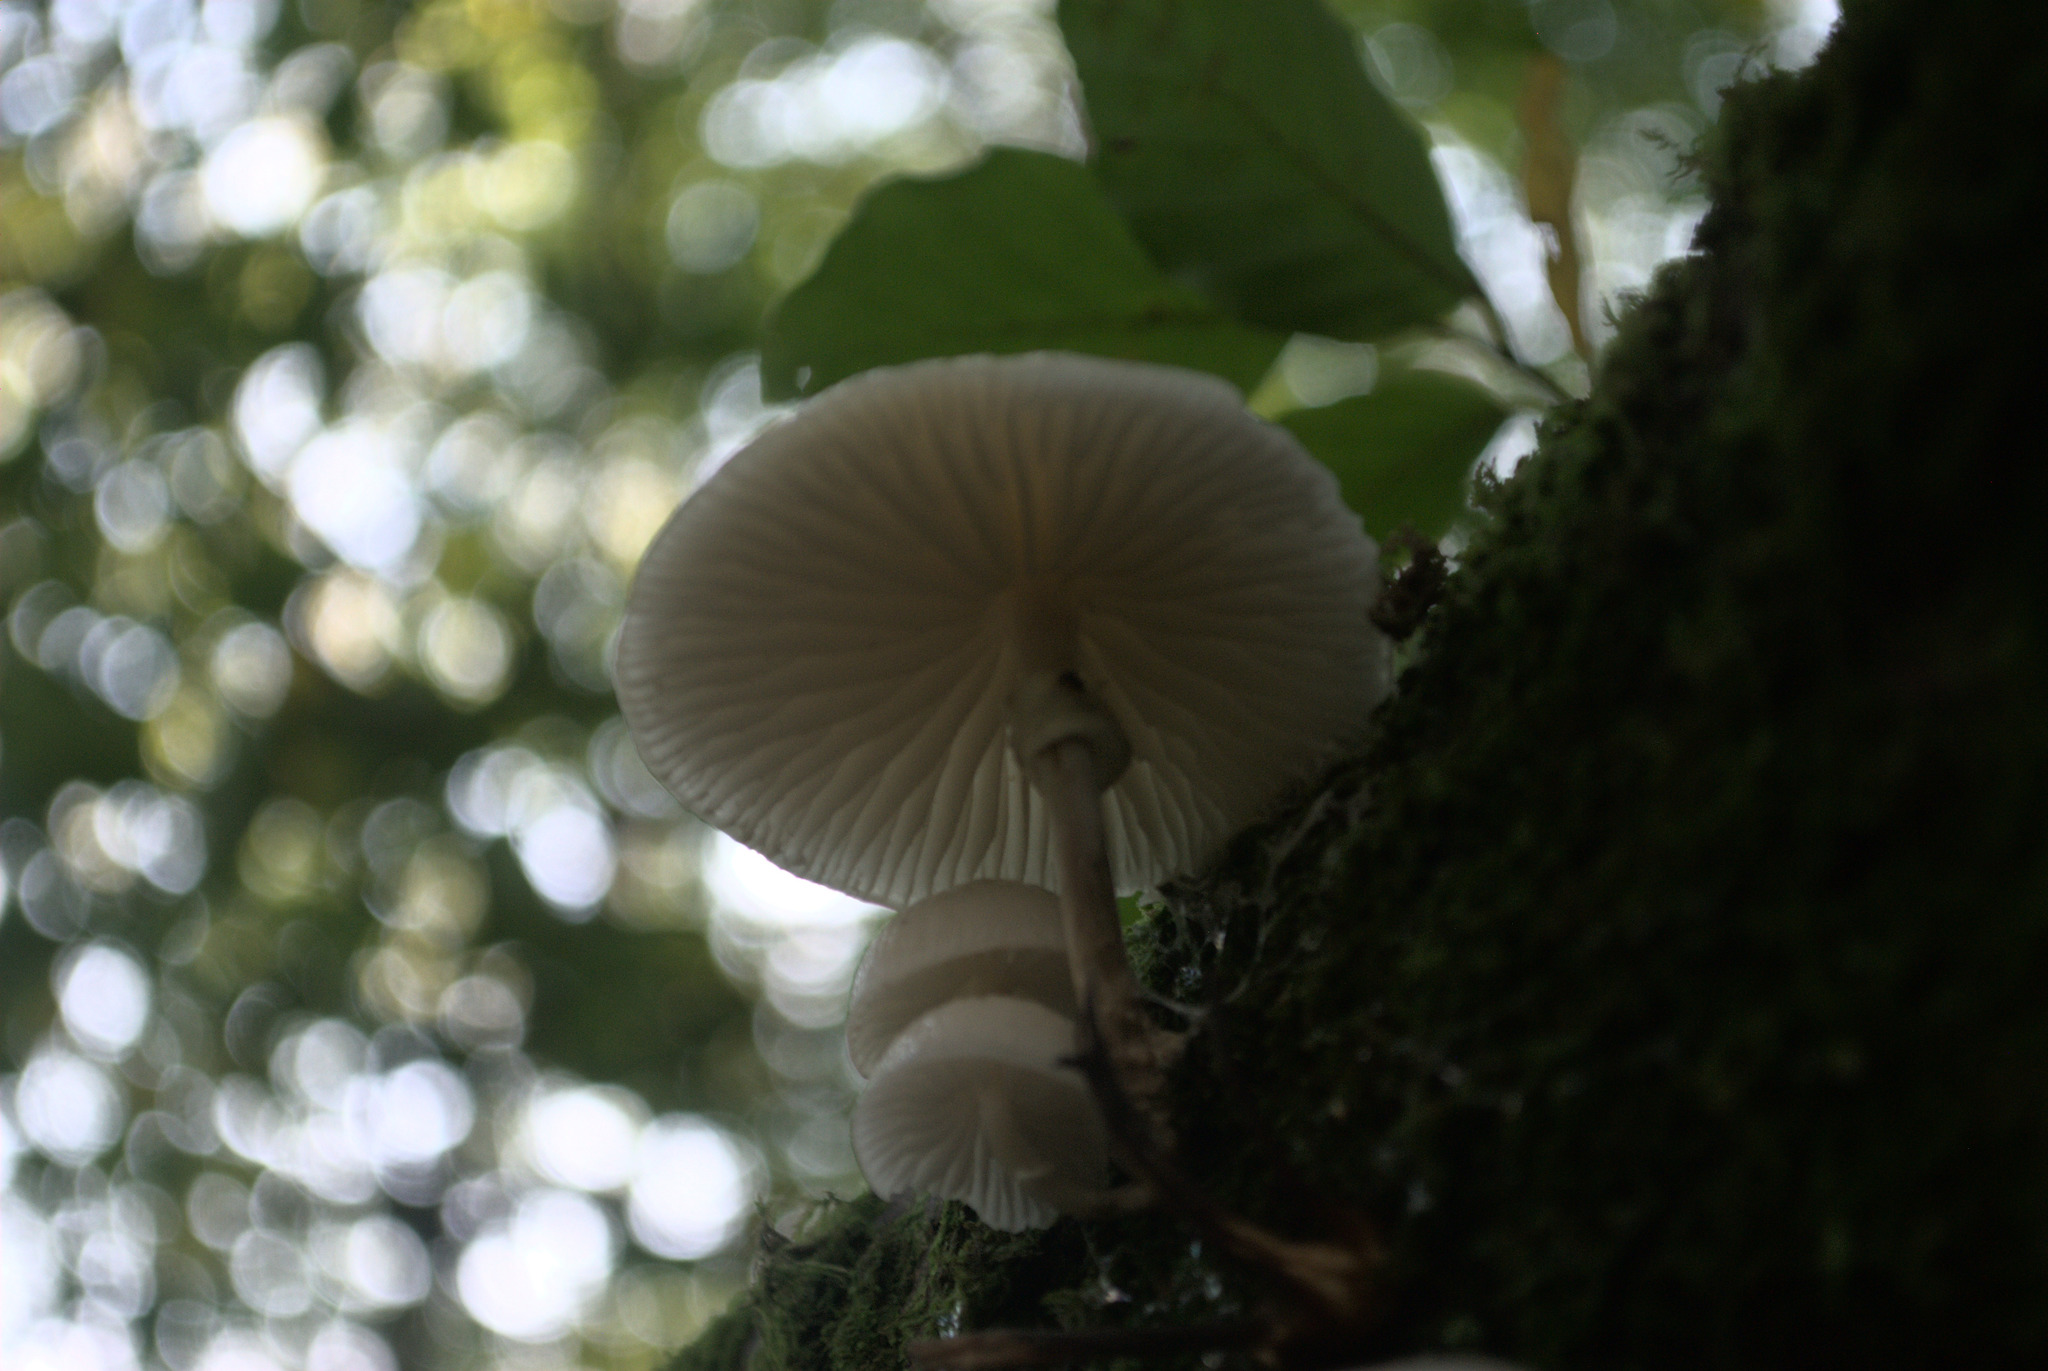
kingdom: Fungi
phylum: Basidiomycota
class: Agaricomycetes
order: Agaricales
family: Physalacriaceae
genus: Mucidula
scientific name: Mucidula mucida
